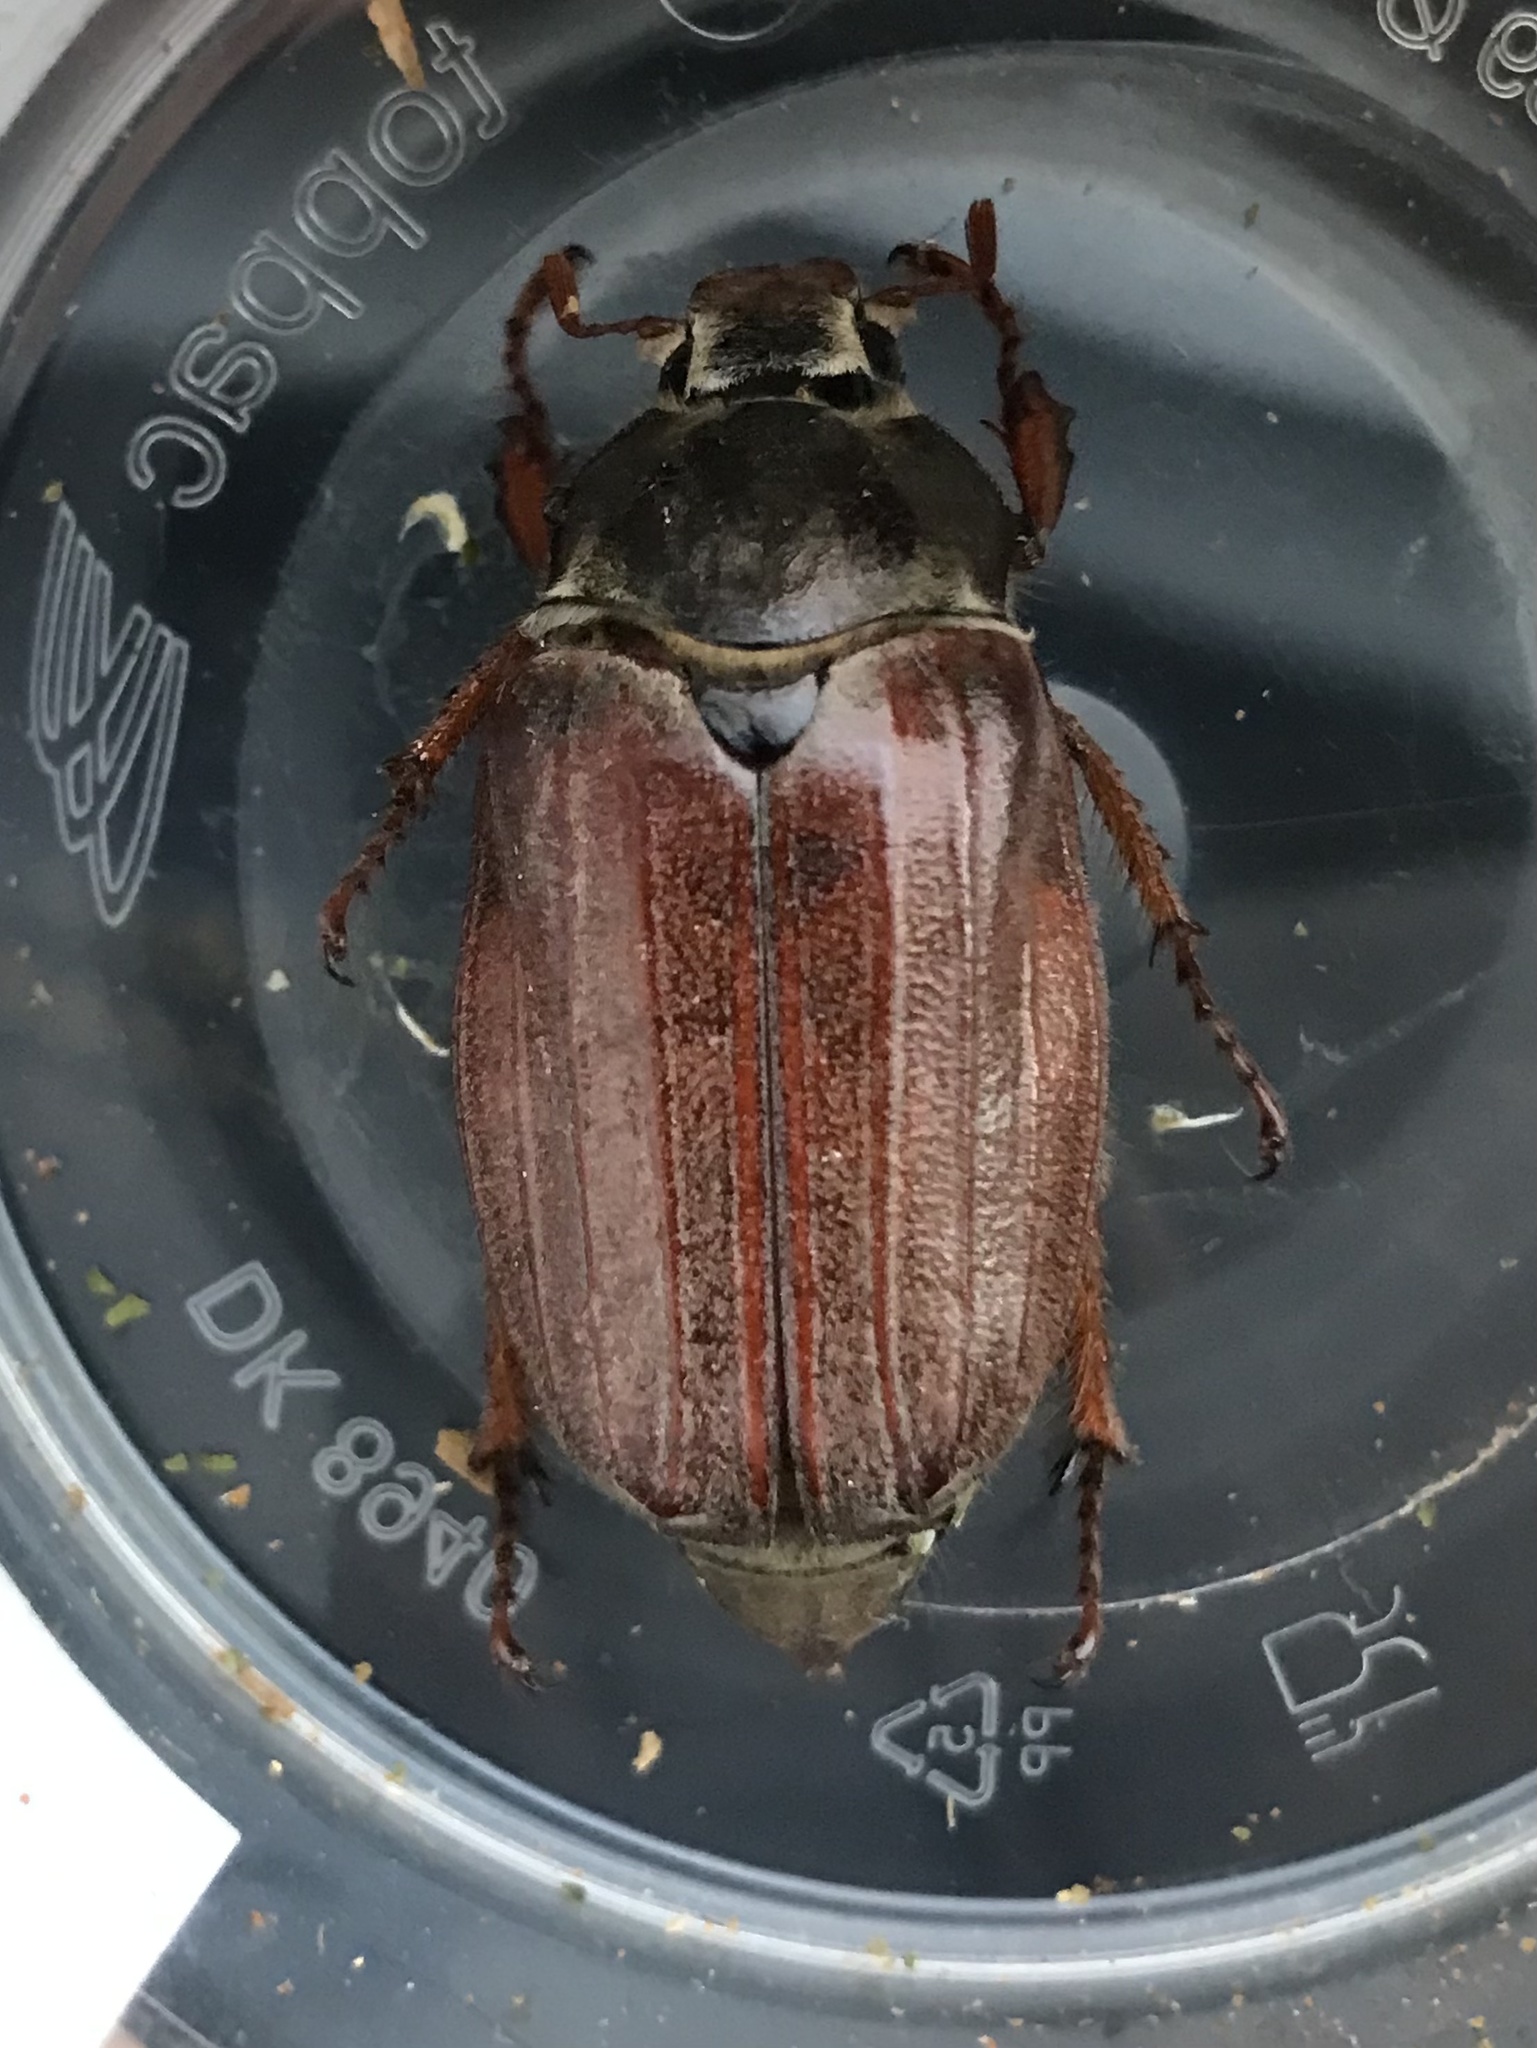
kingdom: Animalia
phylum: Arthropoda
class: Insecta
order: Coleoptera
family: Scarabaeidae
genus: Melolontha
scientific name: Melolontha melolontha
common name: Cockchafer maybeetle
